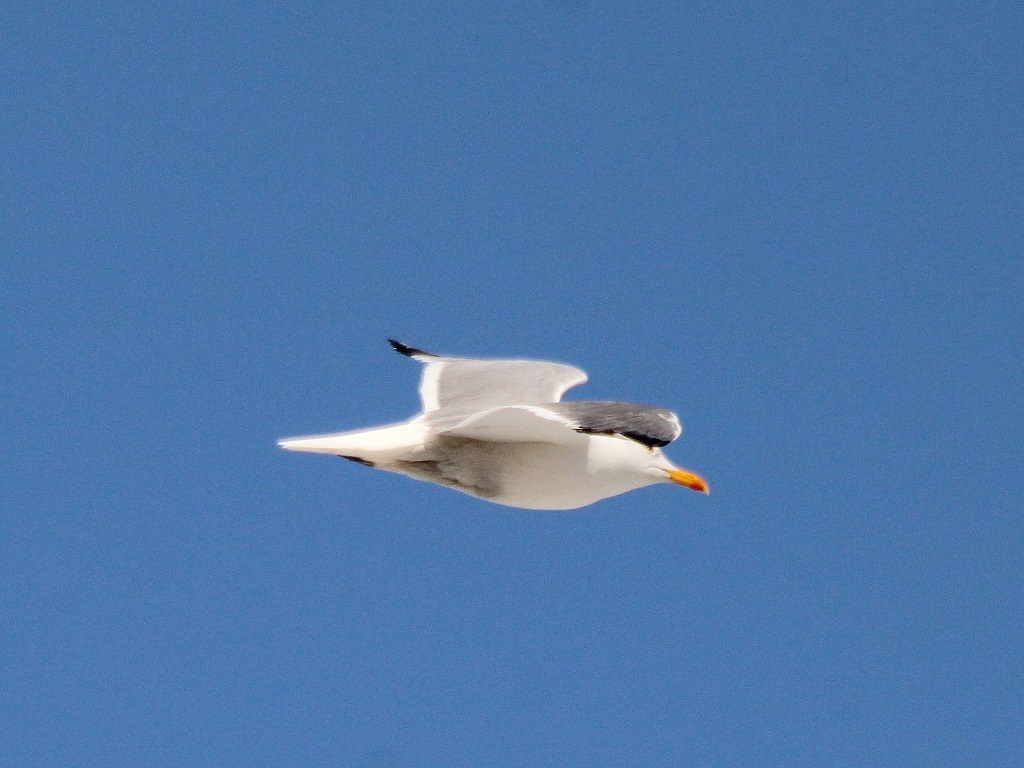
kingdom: Animalia
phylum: Chordata
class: Aves
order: Charadriiformes
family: Laridae
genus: Larus
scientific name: Larus fuscus
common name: Lesser black-backed gull
